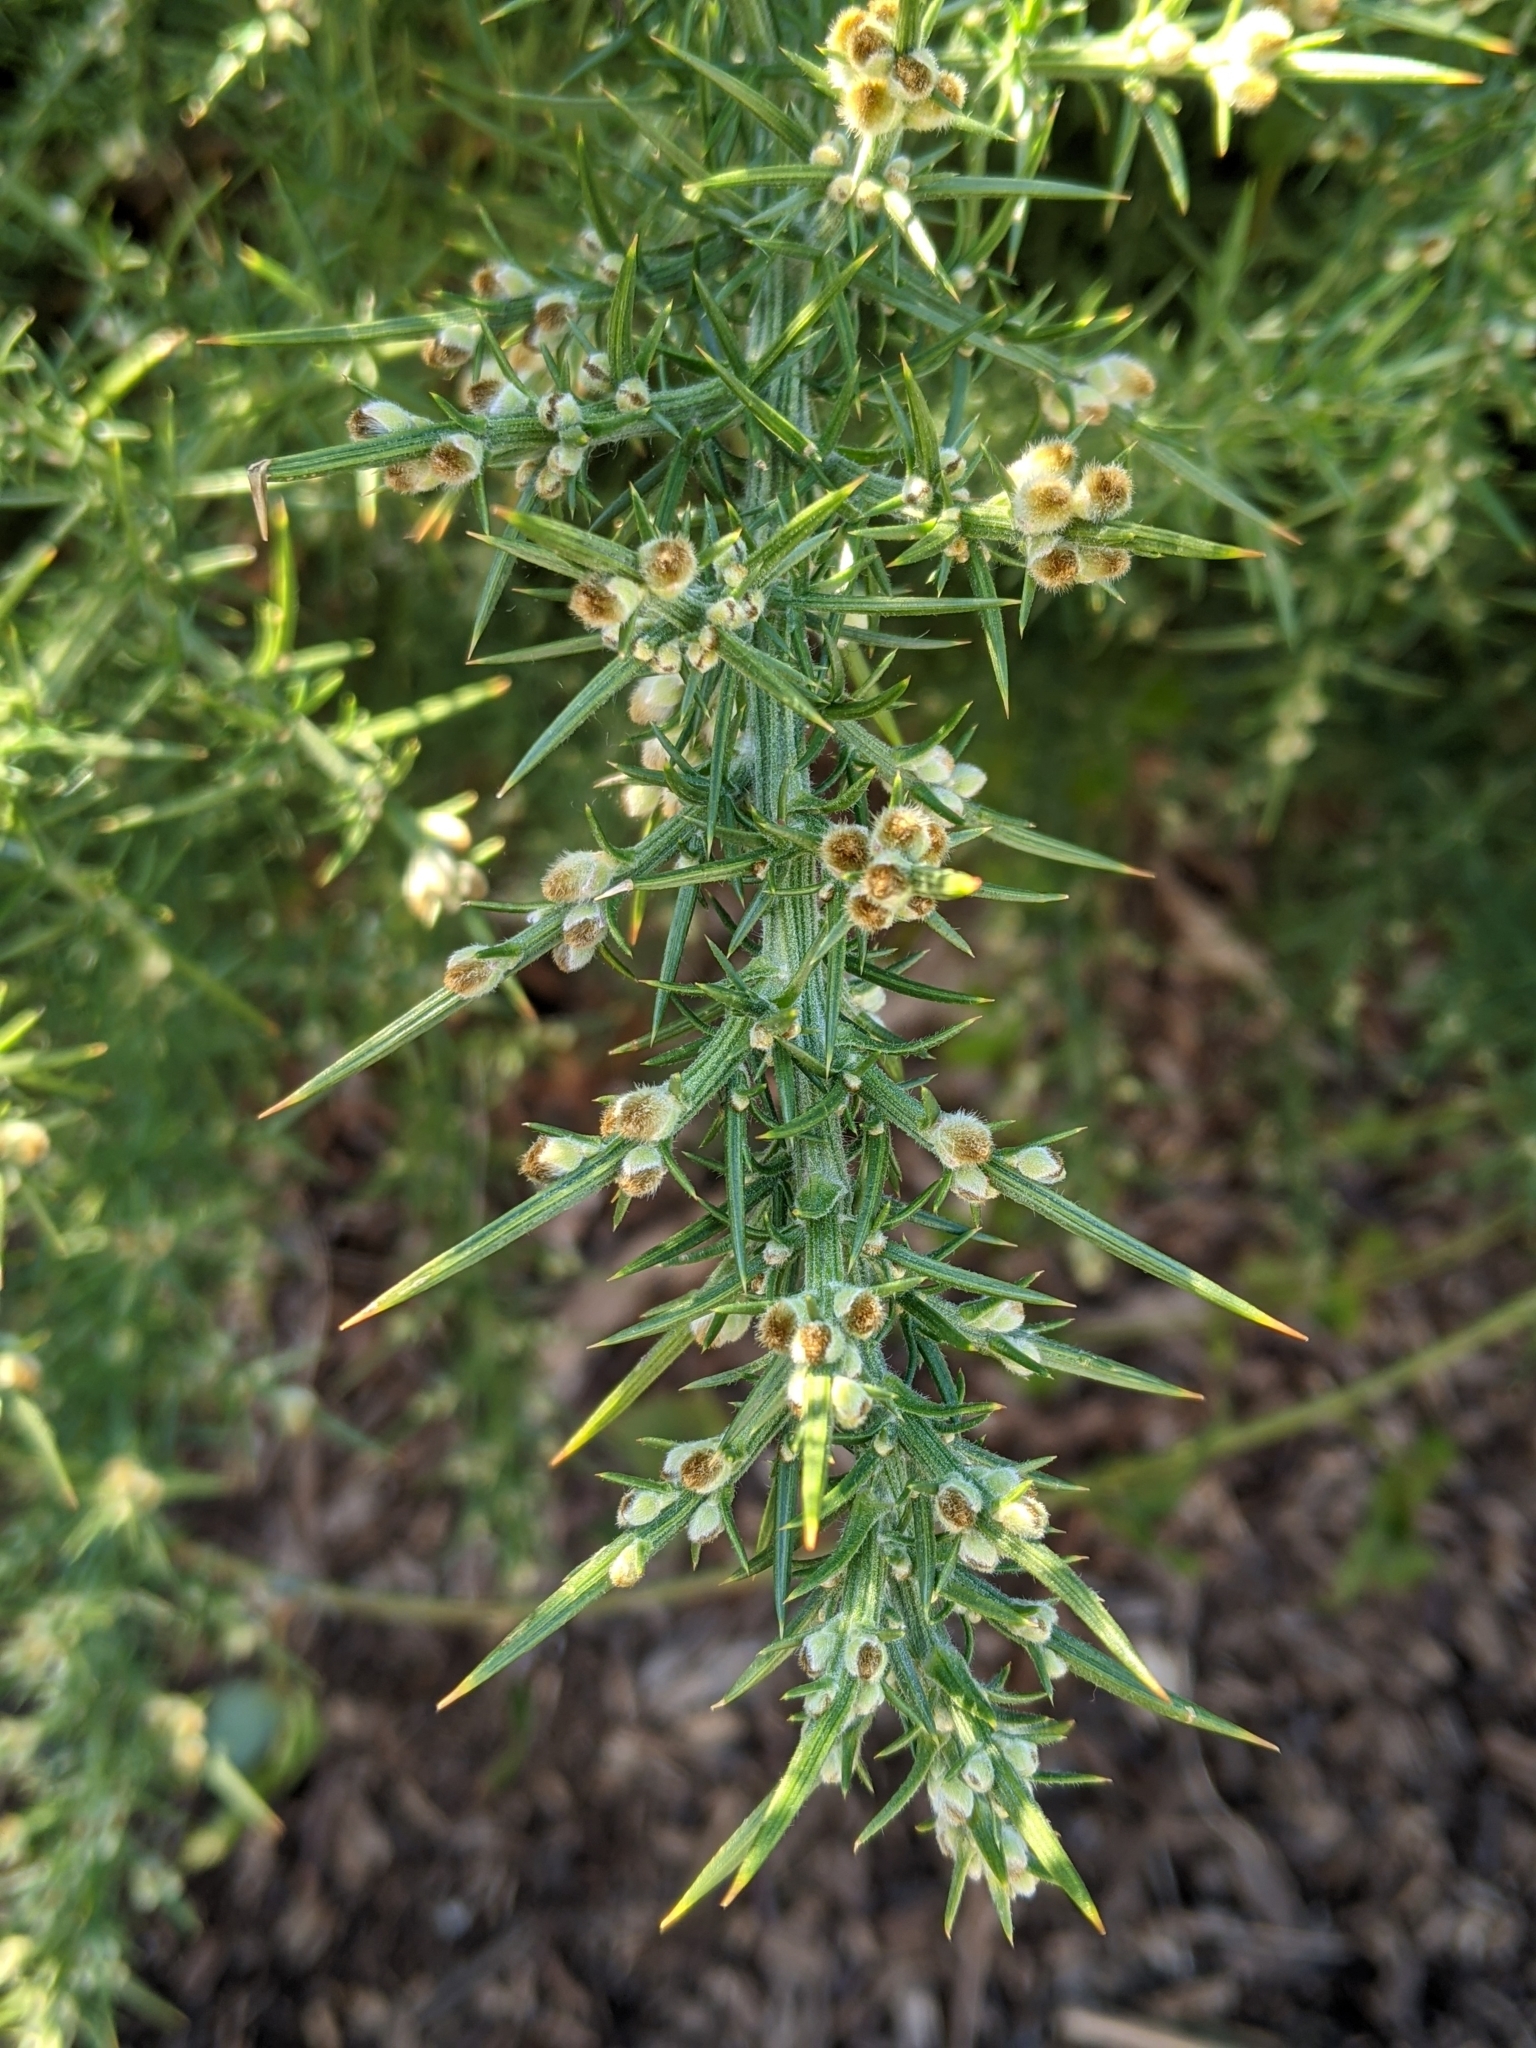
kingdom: Plantae
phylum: Tracheophyta
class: Magnoliopsida
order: Fabales
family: Fabaceae
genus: Ulex
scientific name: Ulex europaeus
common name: Common gorse
